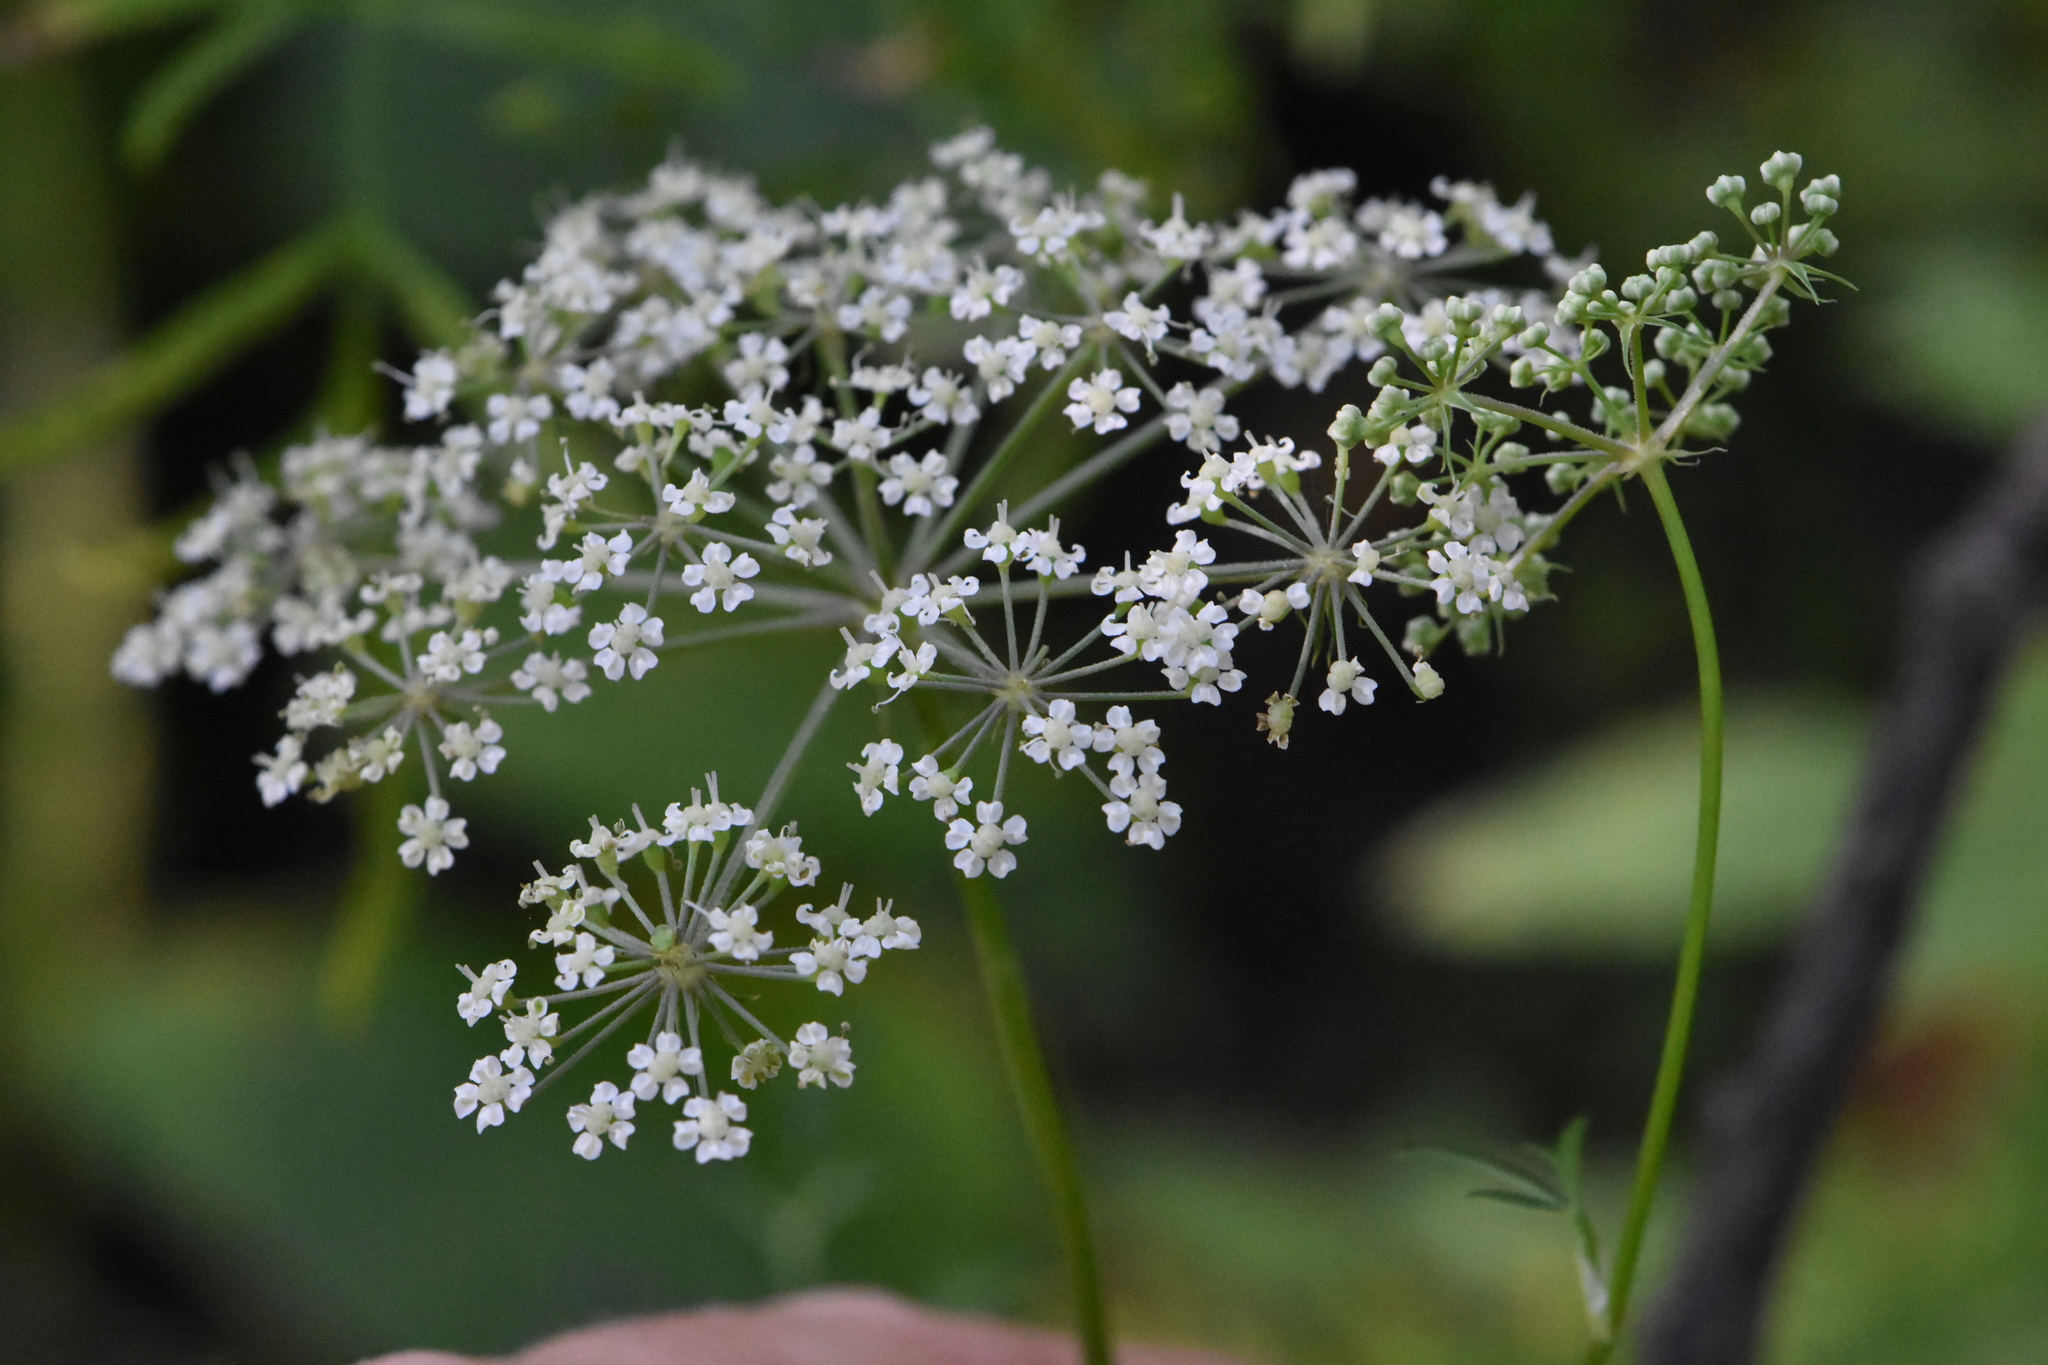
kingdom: Plantae
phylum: Tracheophyta
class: Magnoliopsida
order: Apiales
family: Apiaceae
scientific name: Apiaceae
